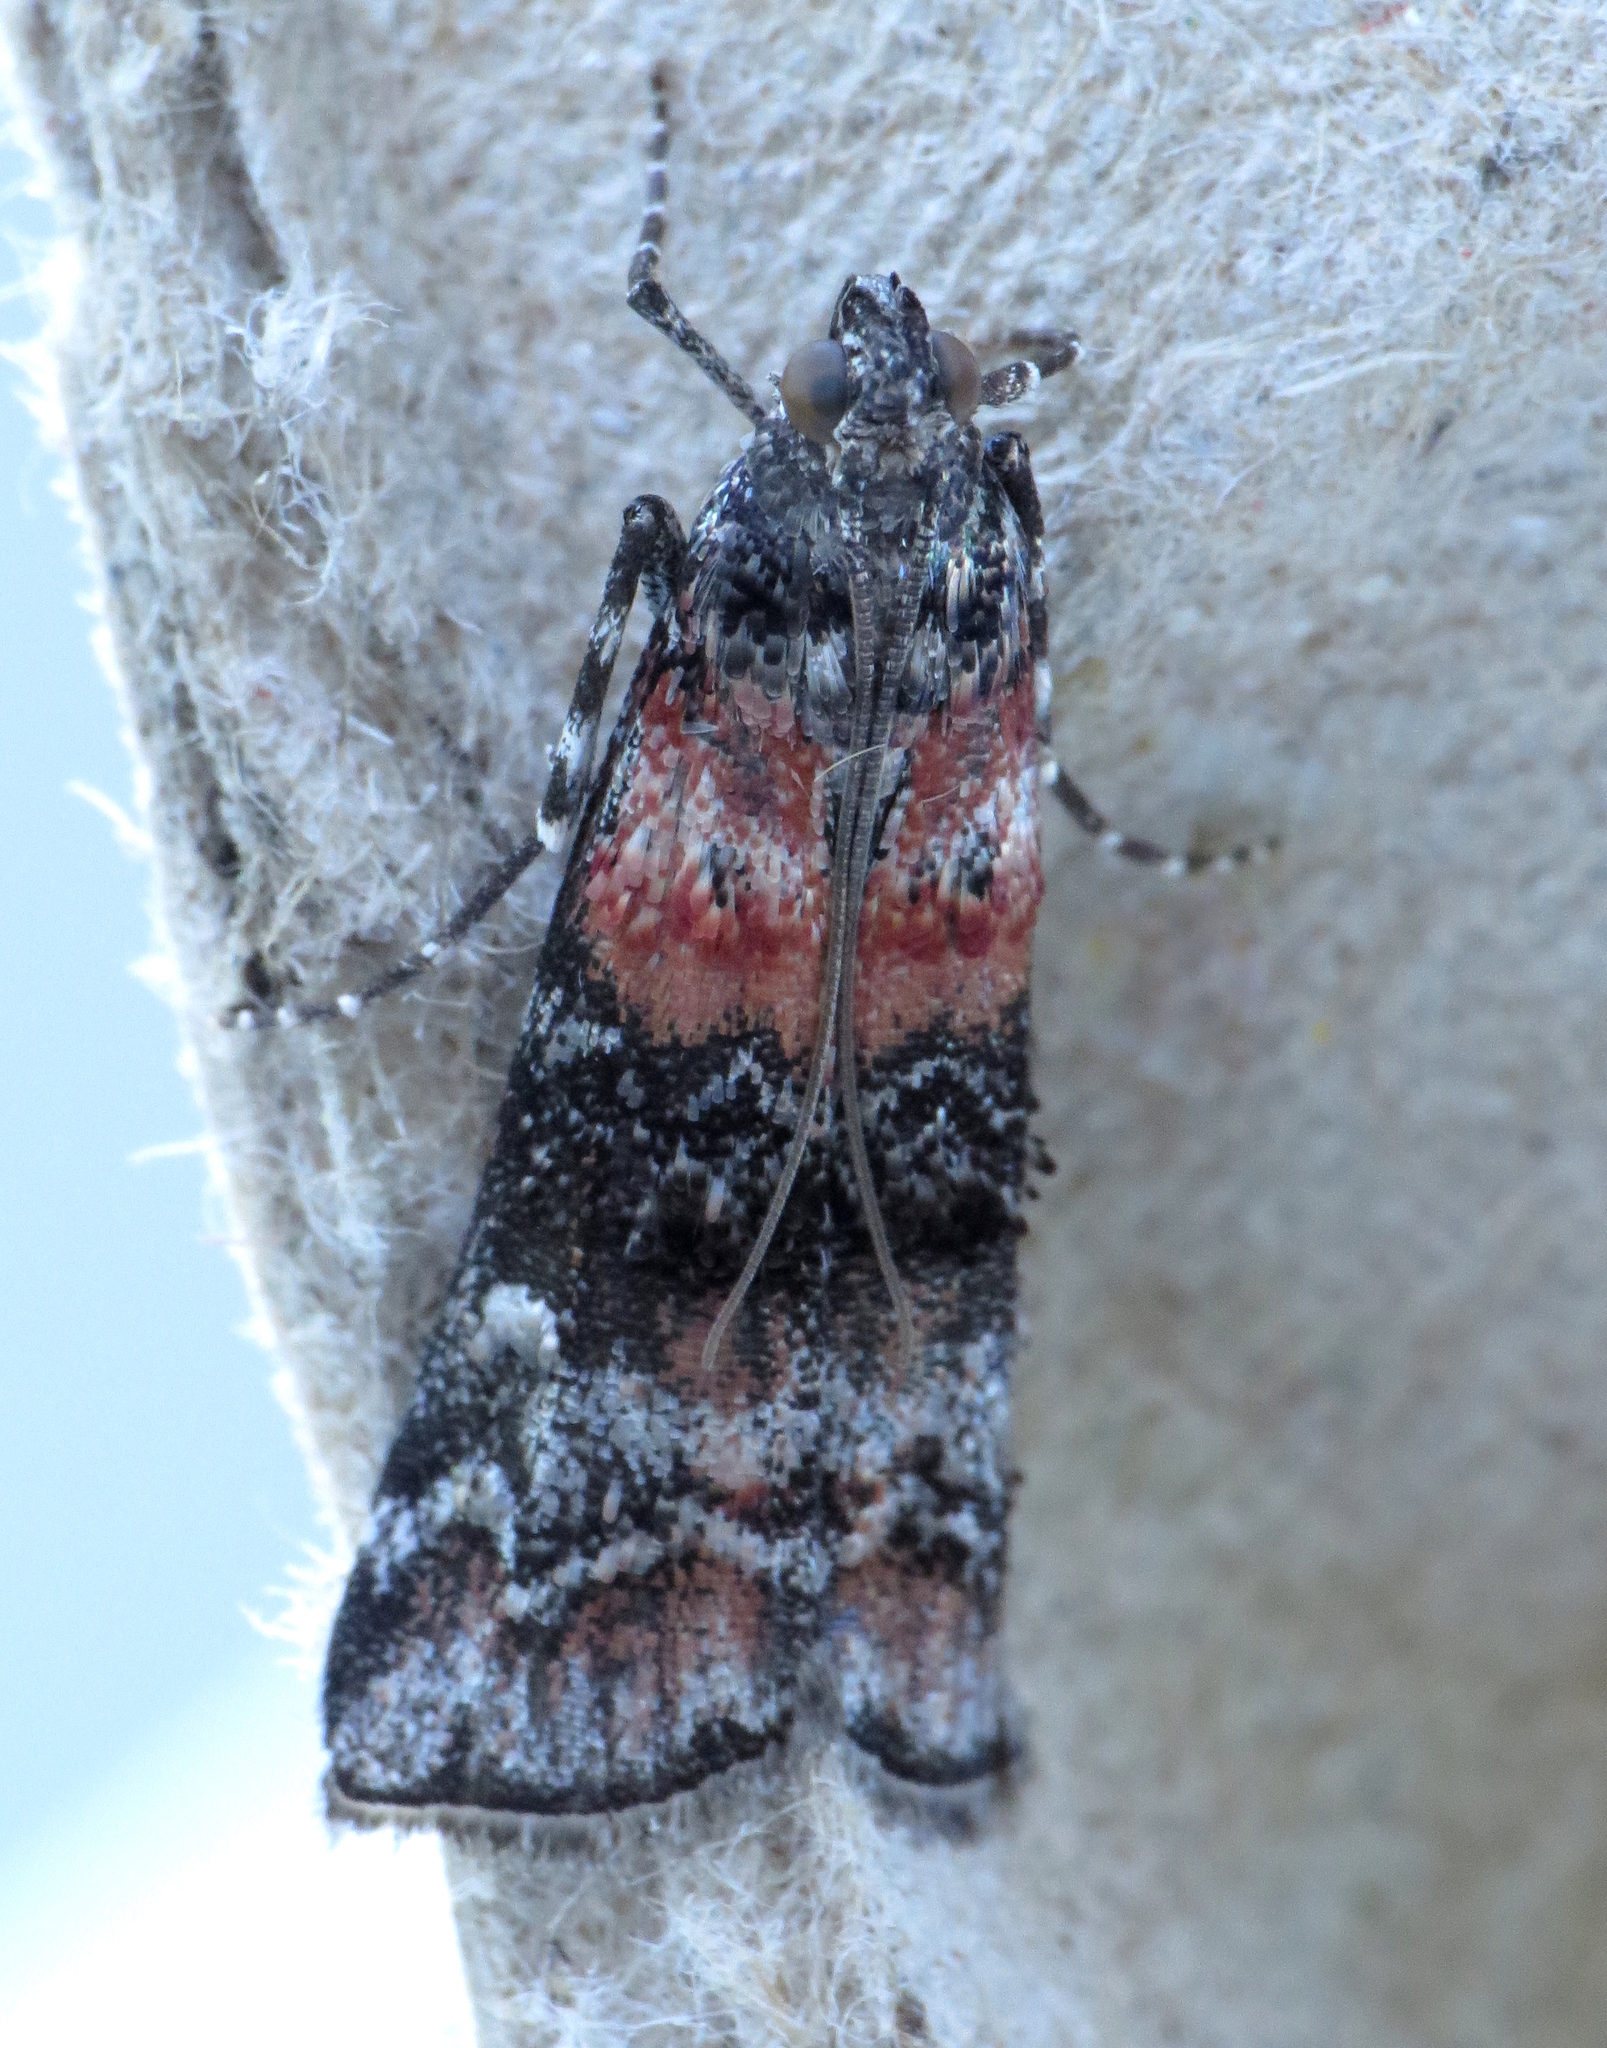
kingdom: Animalia
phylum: Arthropoda
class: Insecta
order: Lepidoptera
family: Pyralidae
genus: Dioryctria
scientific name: Dioryctria zimmermani
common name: Zimmerman pine moth
